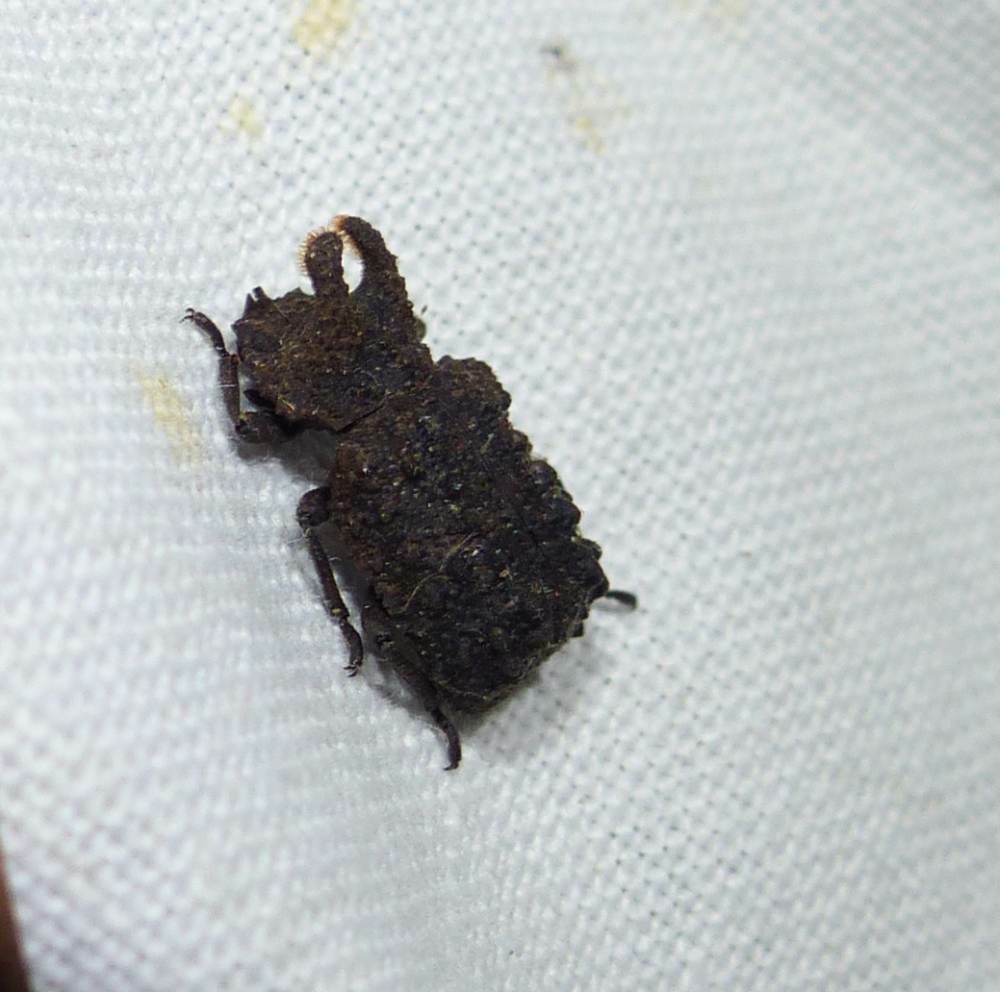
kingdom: Animalia
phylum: Arthropoda
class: Insecta
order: Coleoptera
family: Tenebrionidae
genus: Gnatocerus
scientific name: Gnatocerus cornutus
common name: Broad-horned flour beetle
